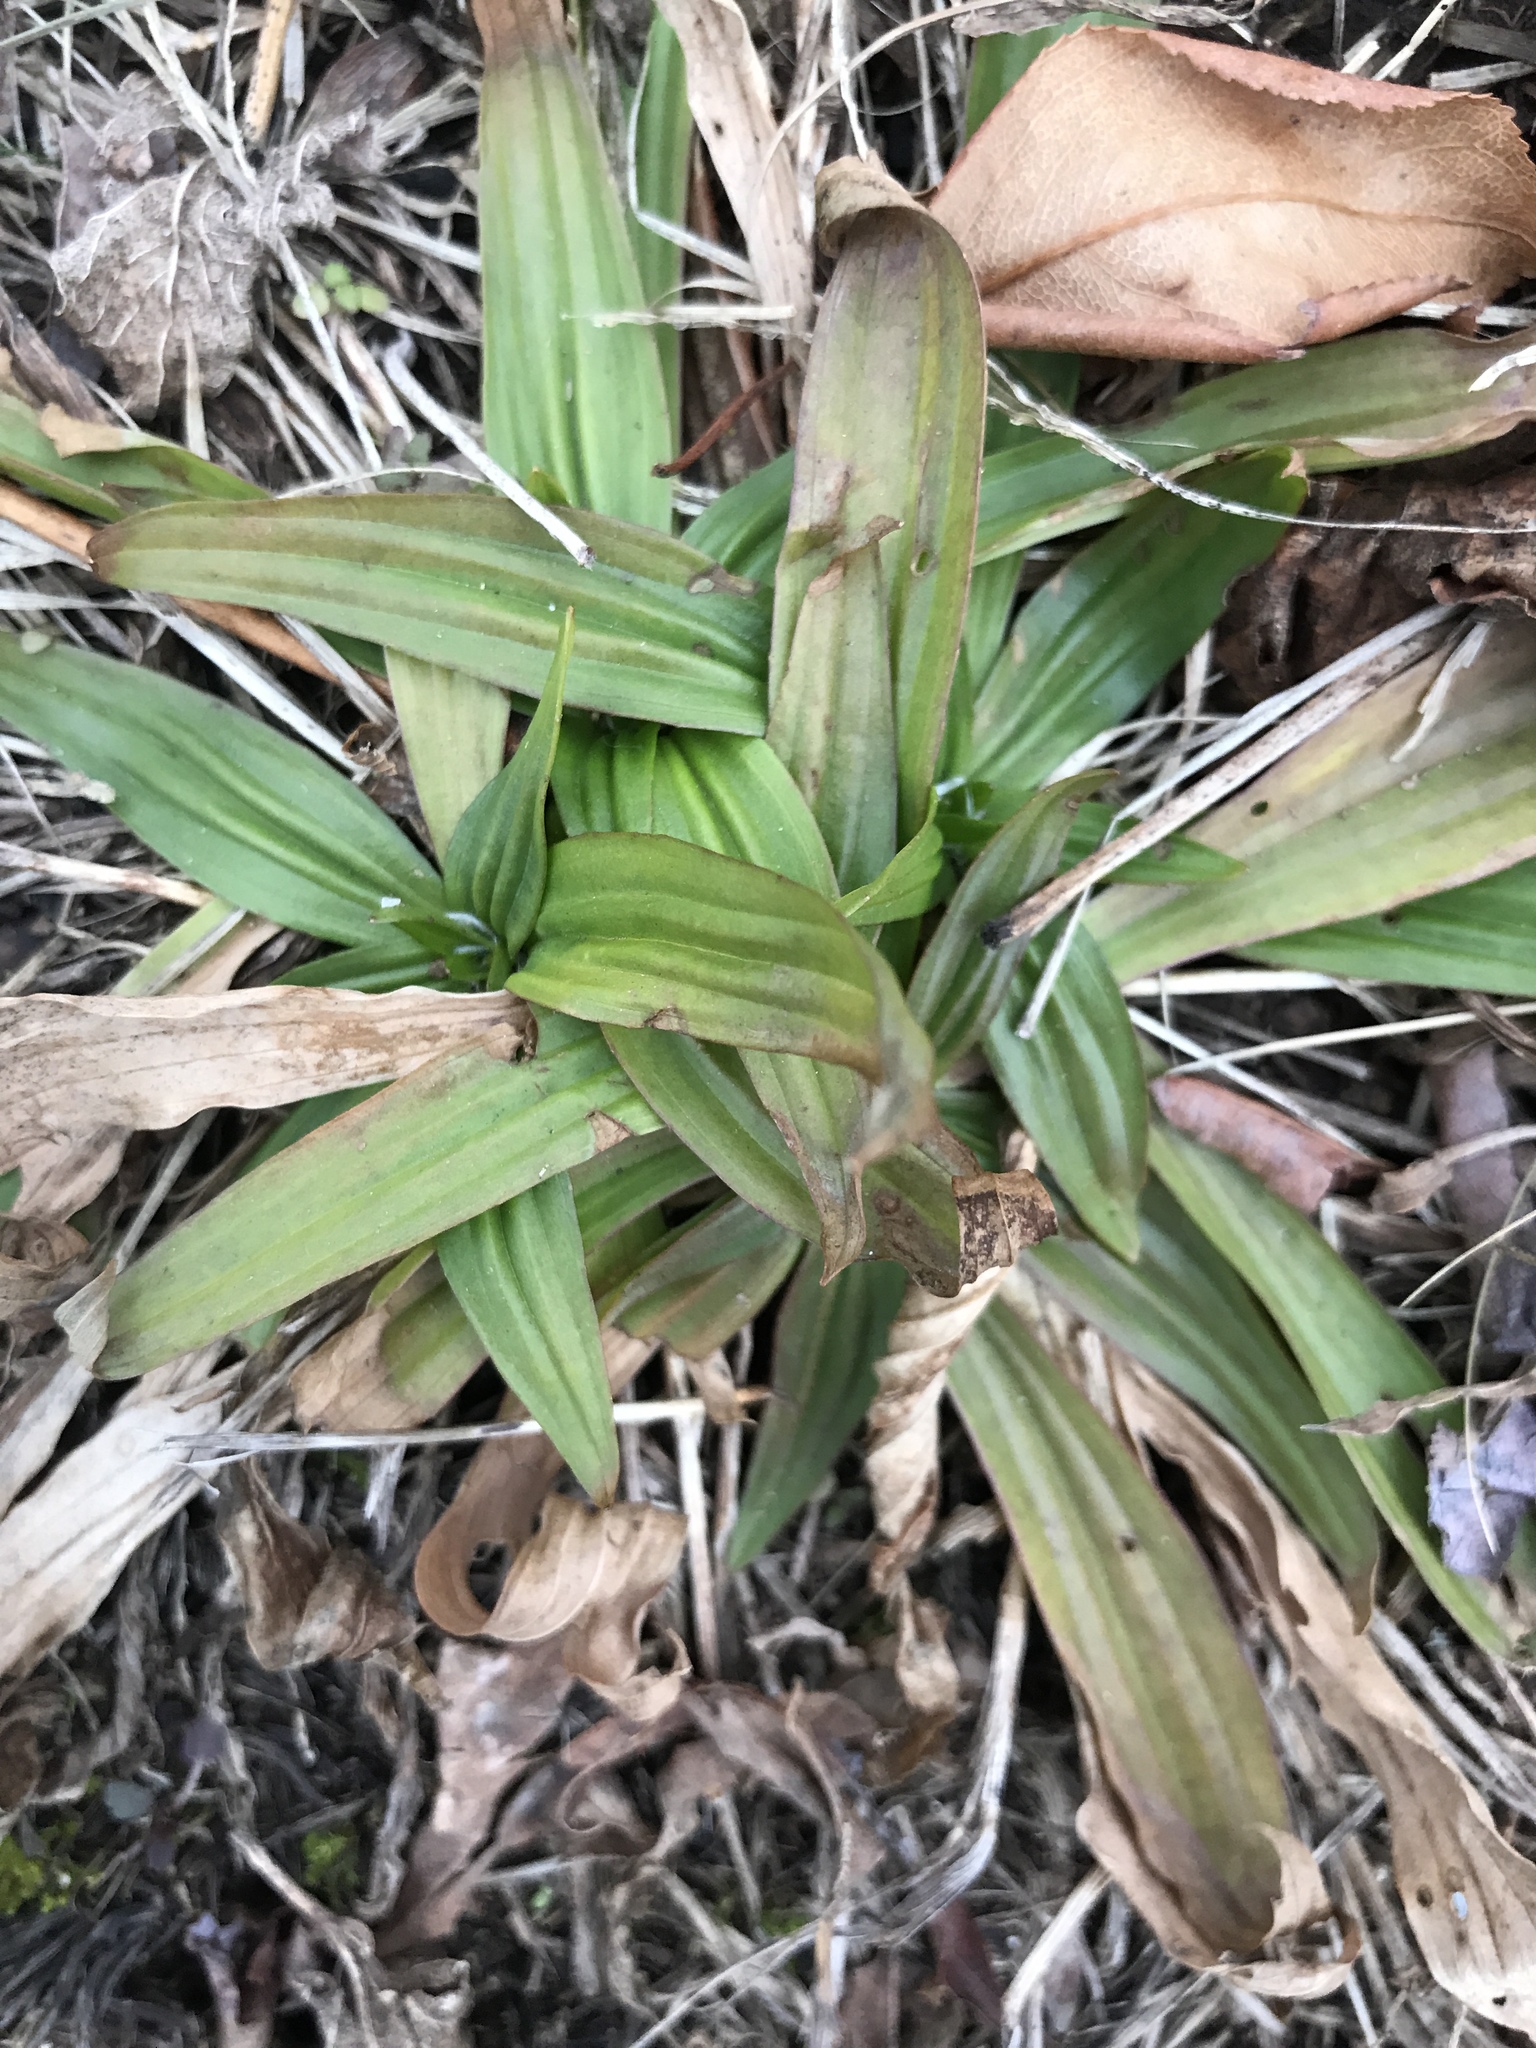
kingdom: Plantae
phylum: Tracheophyta
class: Magnoliopsida
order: Lamiales
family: Plantaginaceae
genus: Plantago
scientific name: Plantago lanceolata
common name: Ribwort plantain
